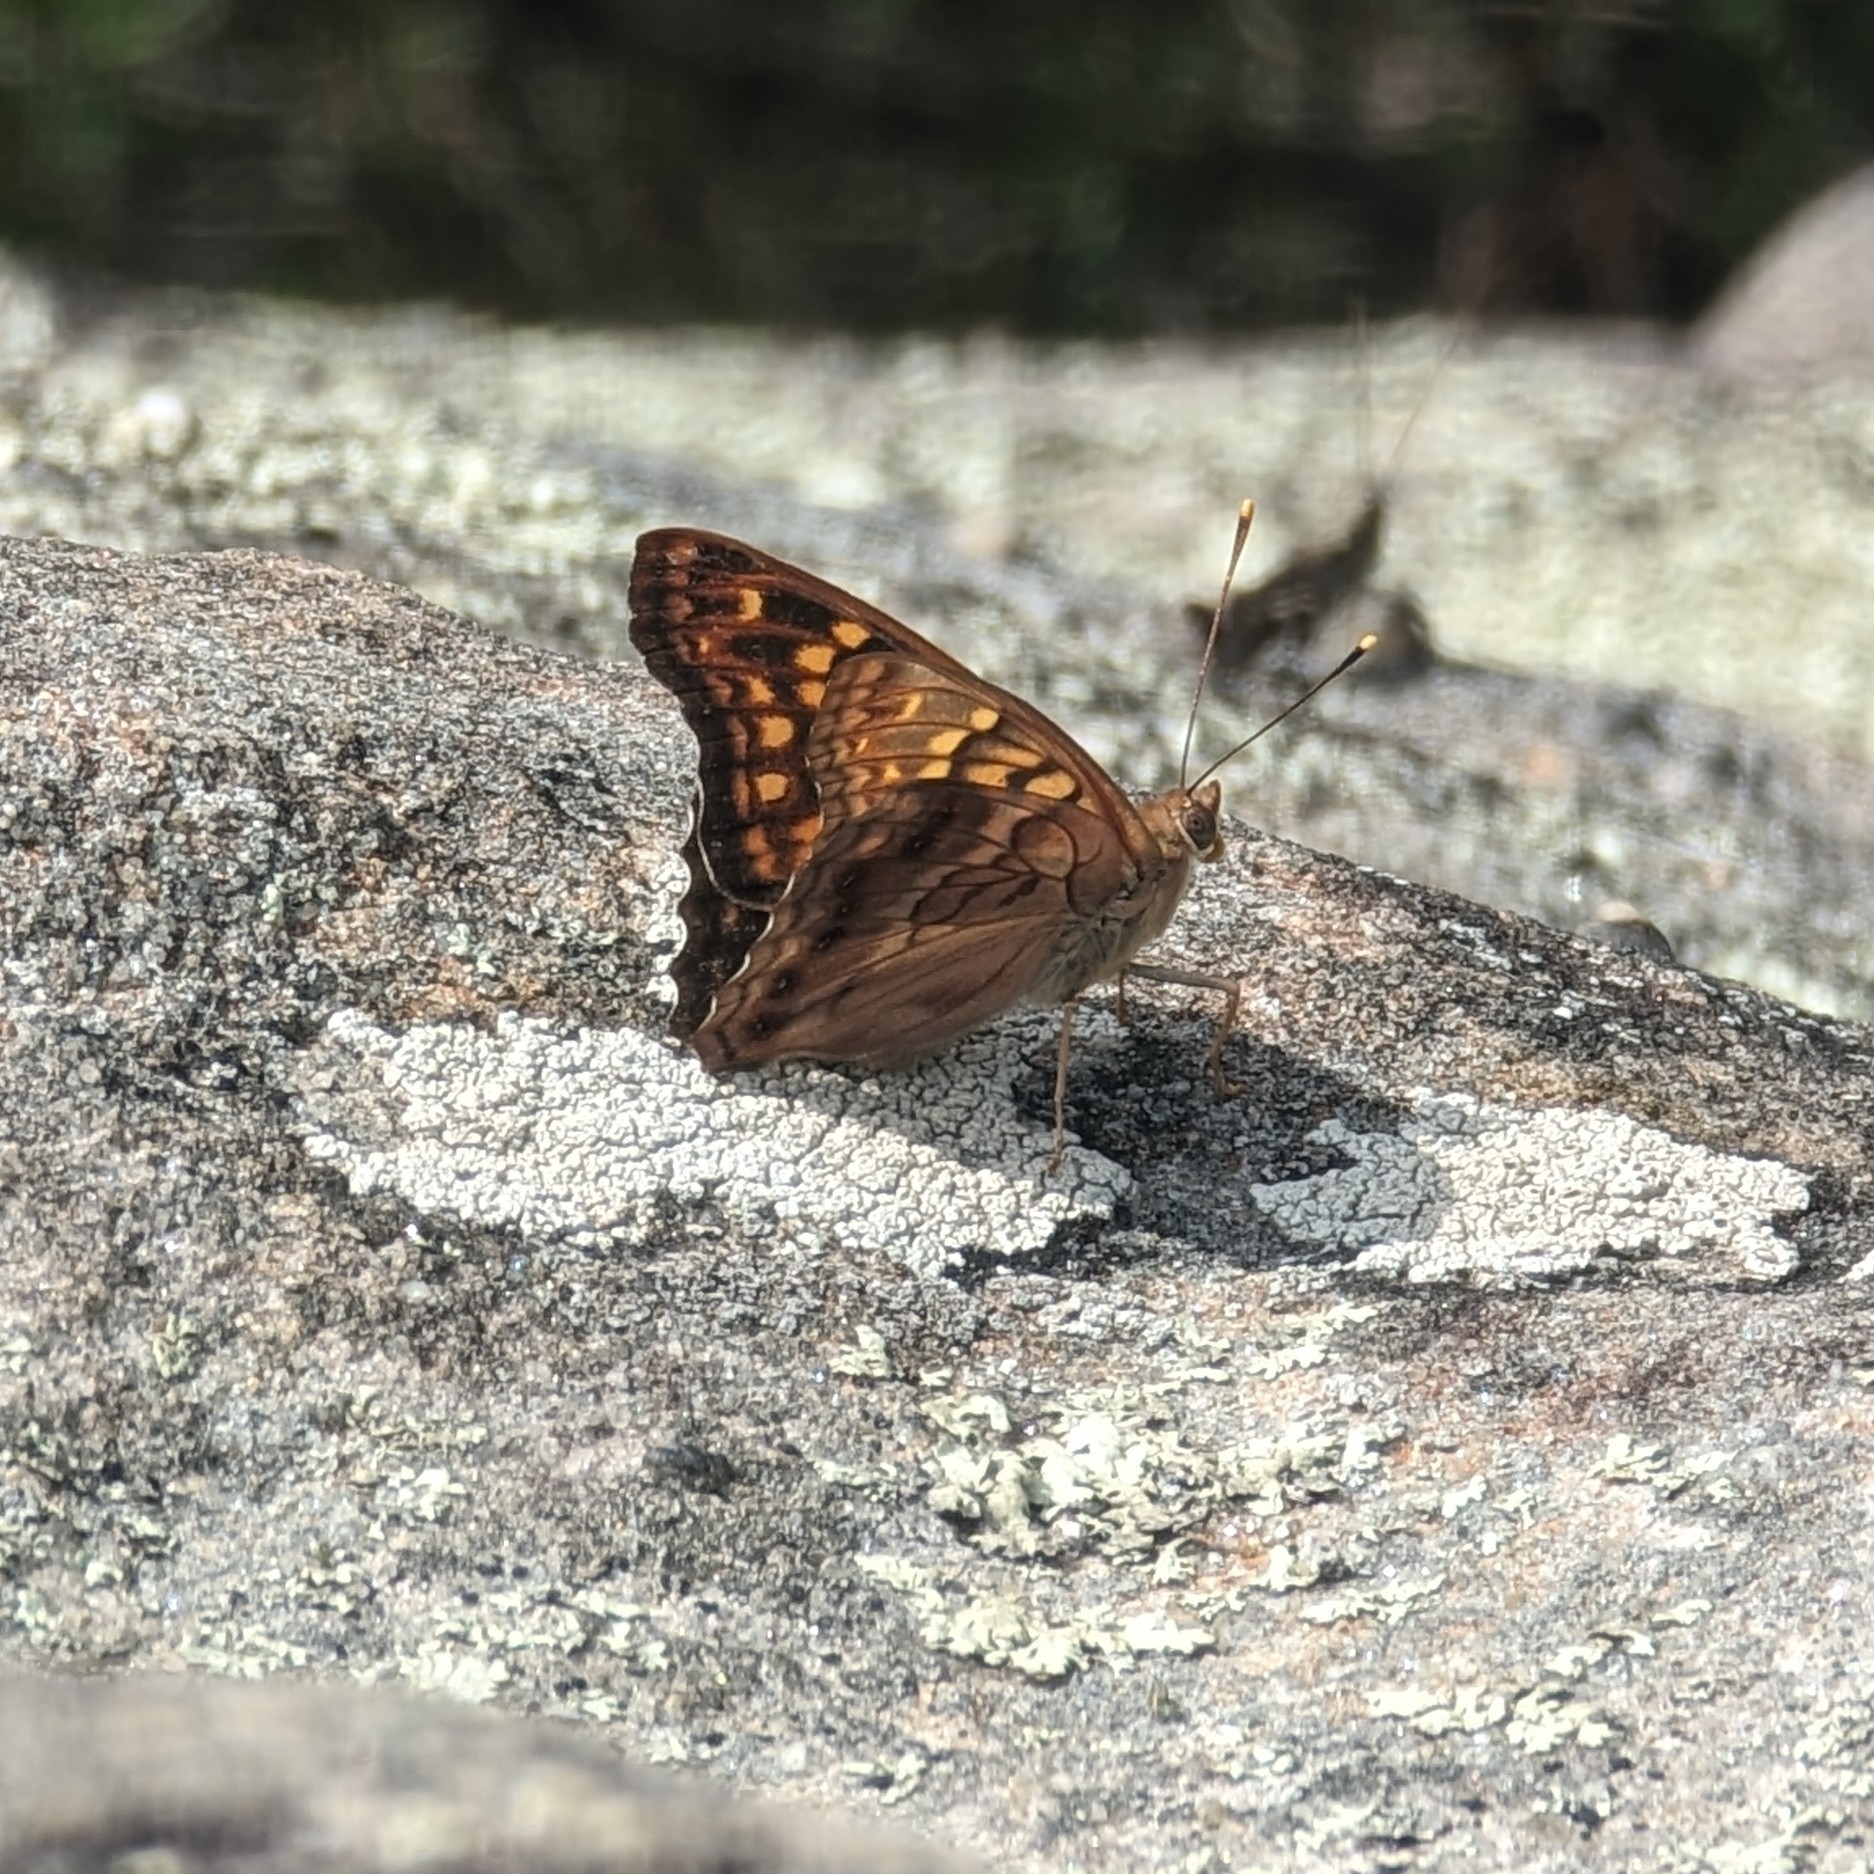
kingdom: Animalia
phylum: Arthropoda
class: Insecta
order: Lepidoptera
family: Nymphalidae
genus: Asterocampa
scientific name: Asterocampa clyton
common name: Tawny emperor
